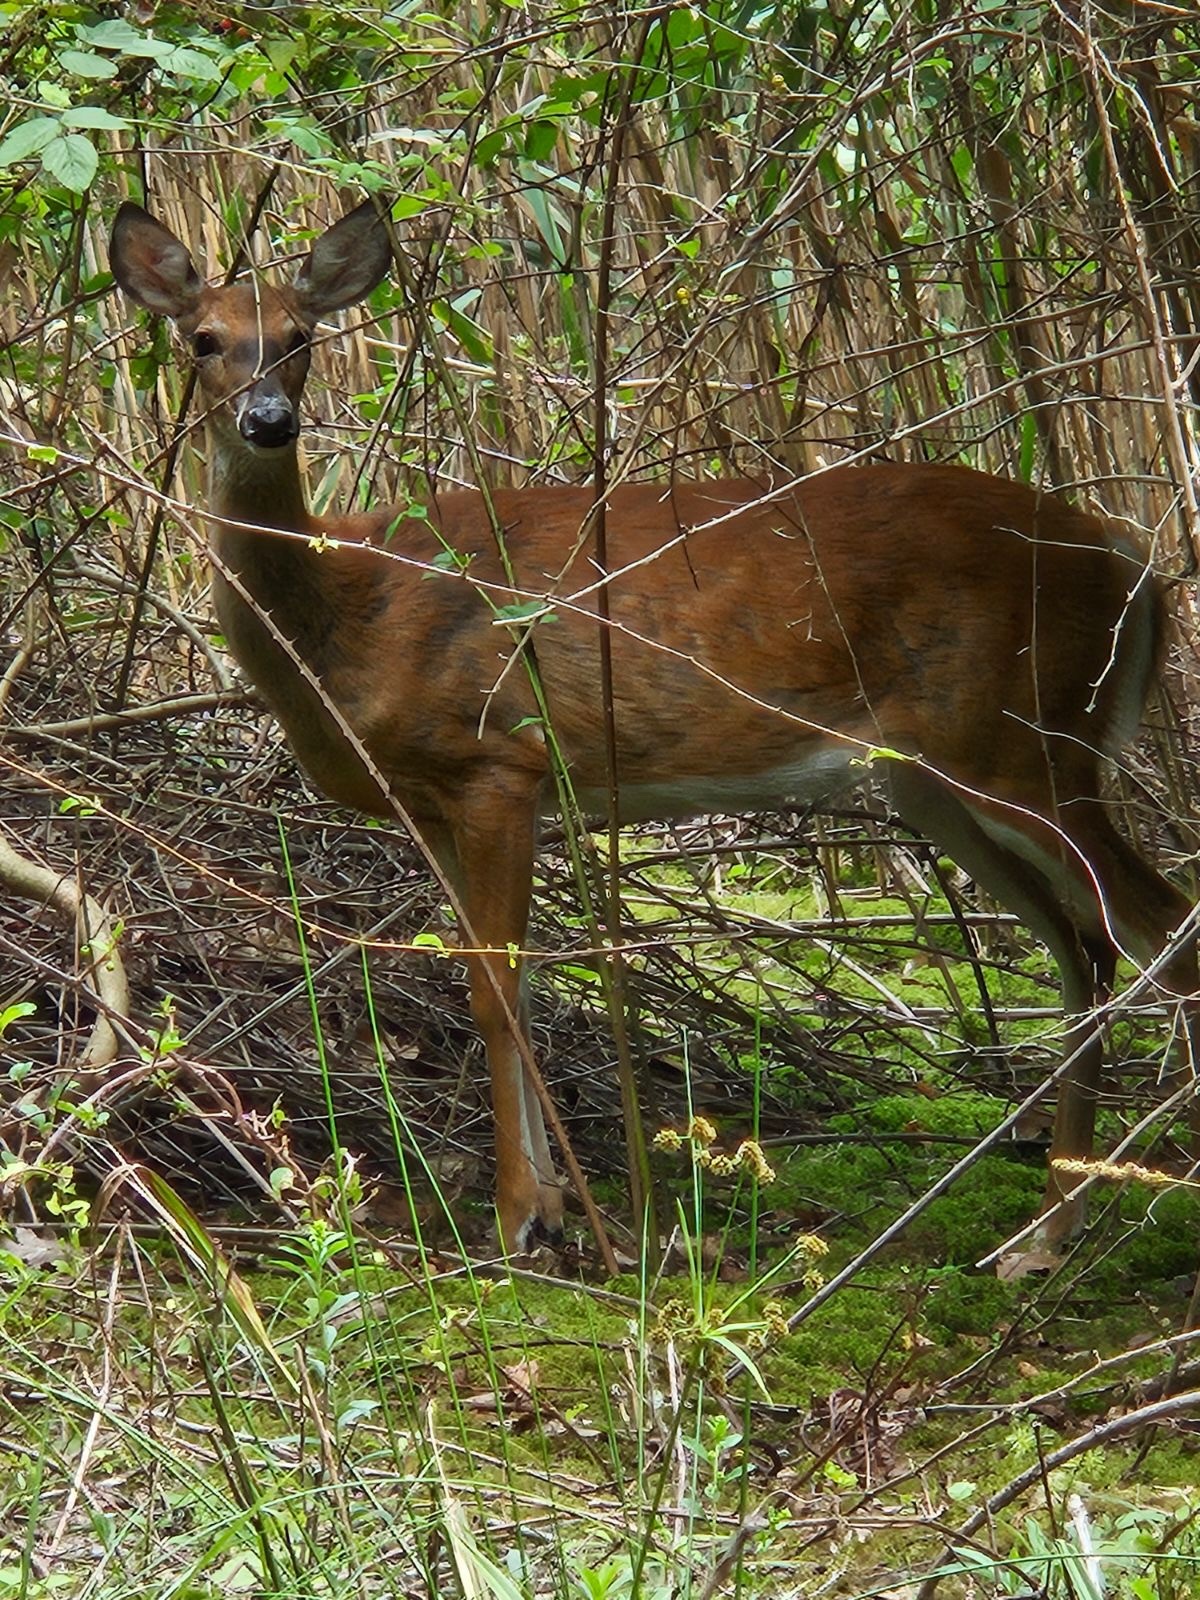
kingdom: Animalia
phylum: Chordata
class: Mammalia
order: Artiodactyla
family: Cervidae
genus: Odocoileus
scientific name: Odocoileus virginianus
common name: White-tailed deer
